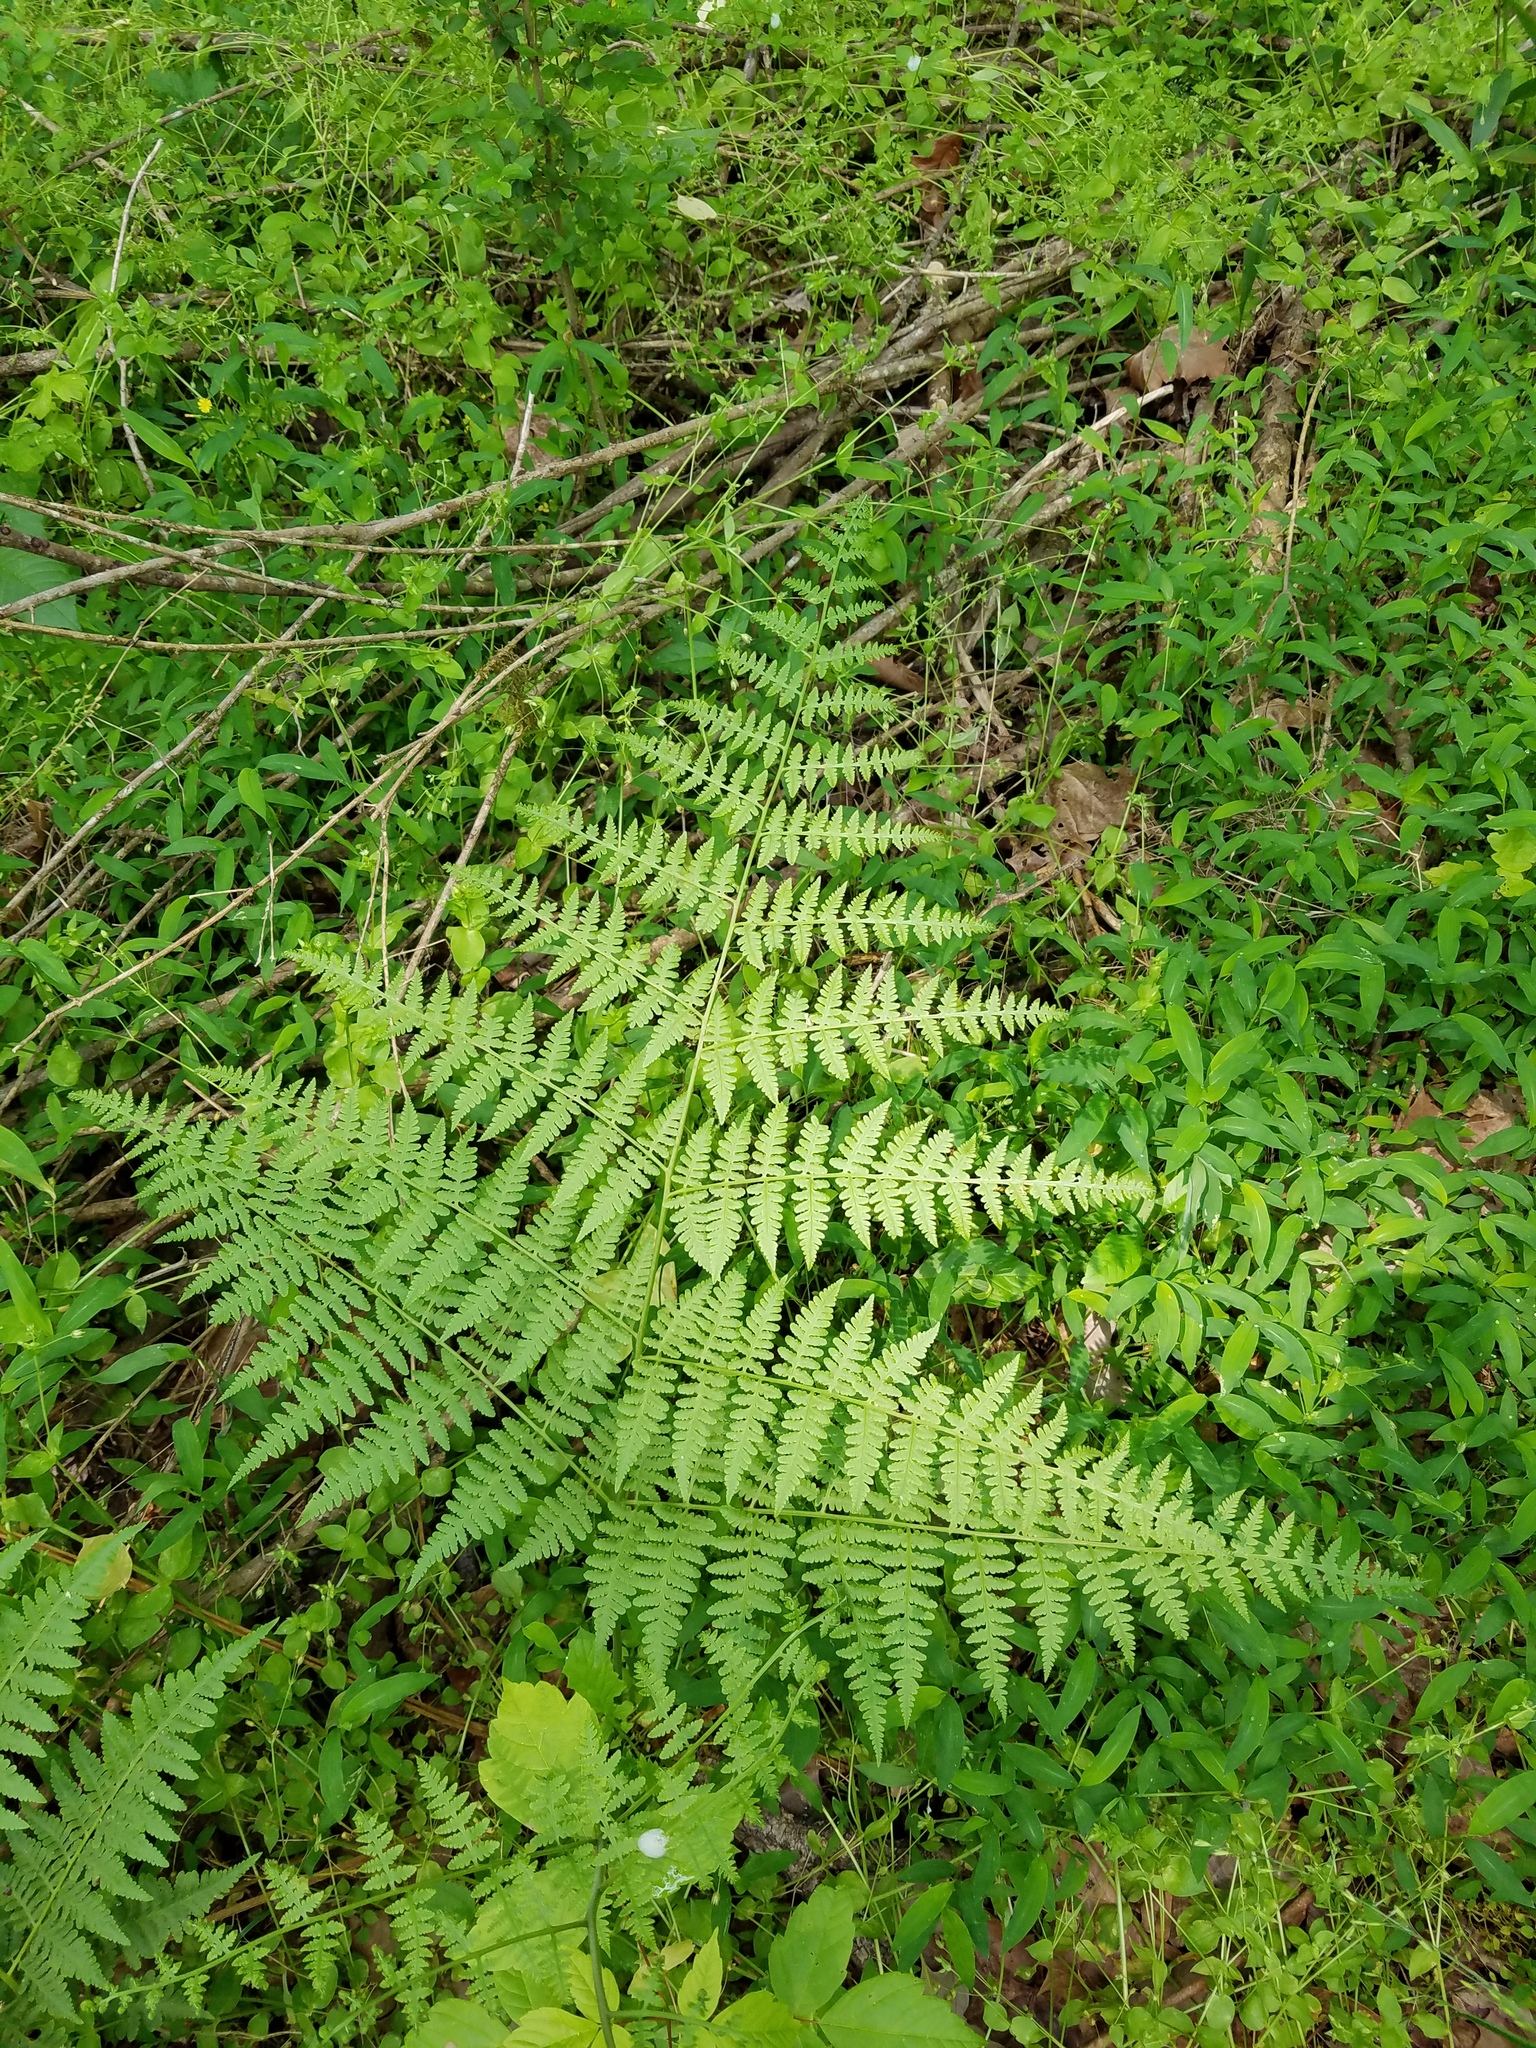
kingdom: Plantae
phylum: Tracheophyta
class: Polypodiopsida
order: Polypodiales
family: Thelypteridaceae
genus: Macrothelypteris
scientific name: Macrothelypteris torresiana
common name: Swordfern
